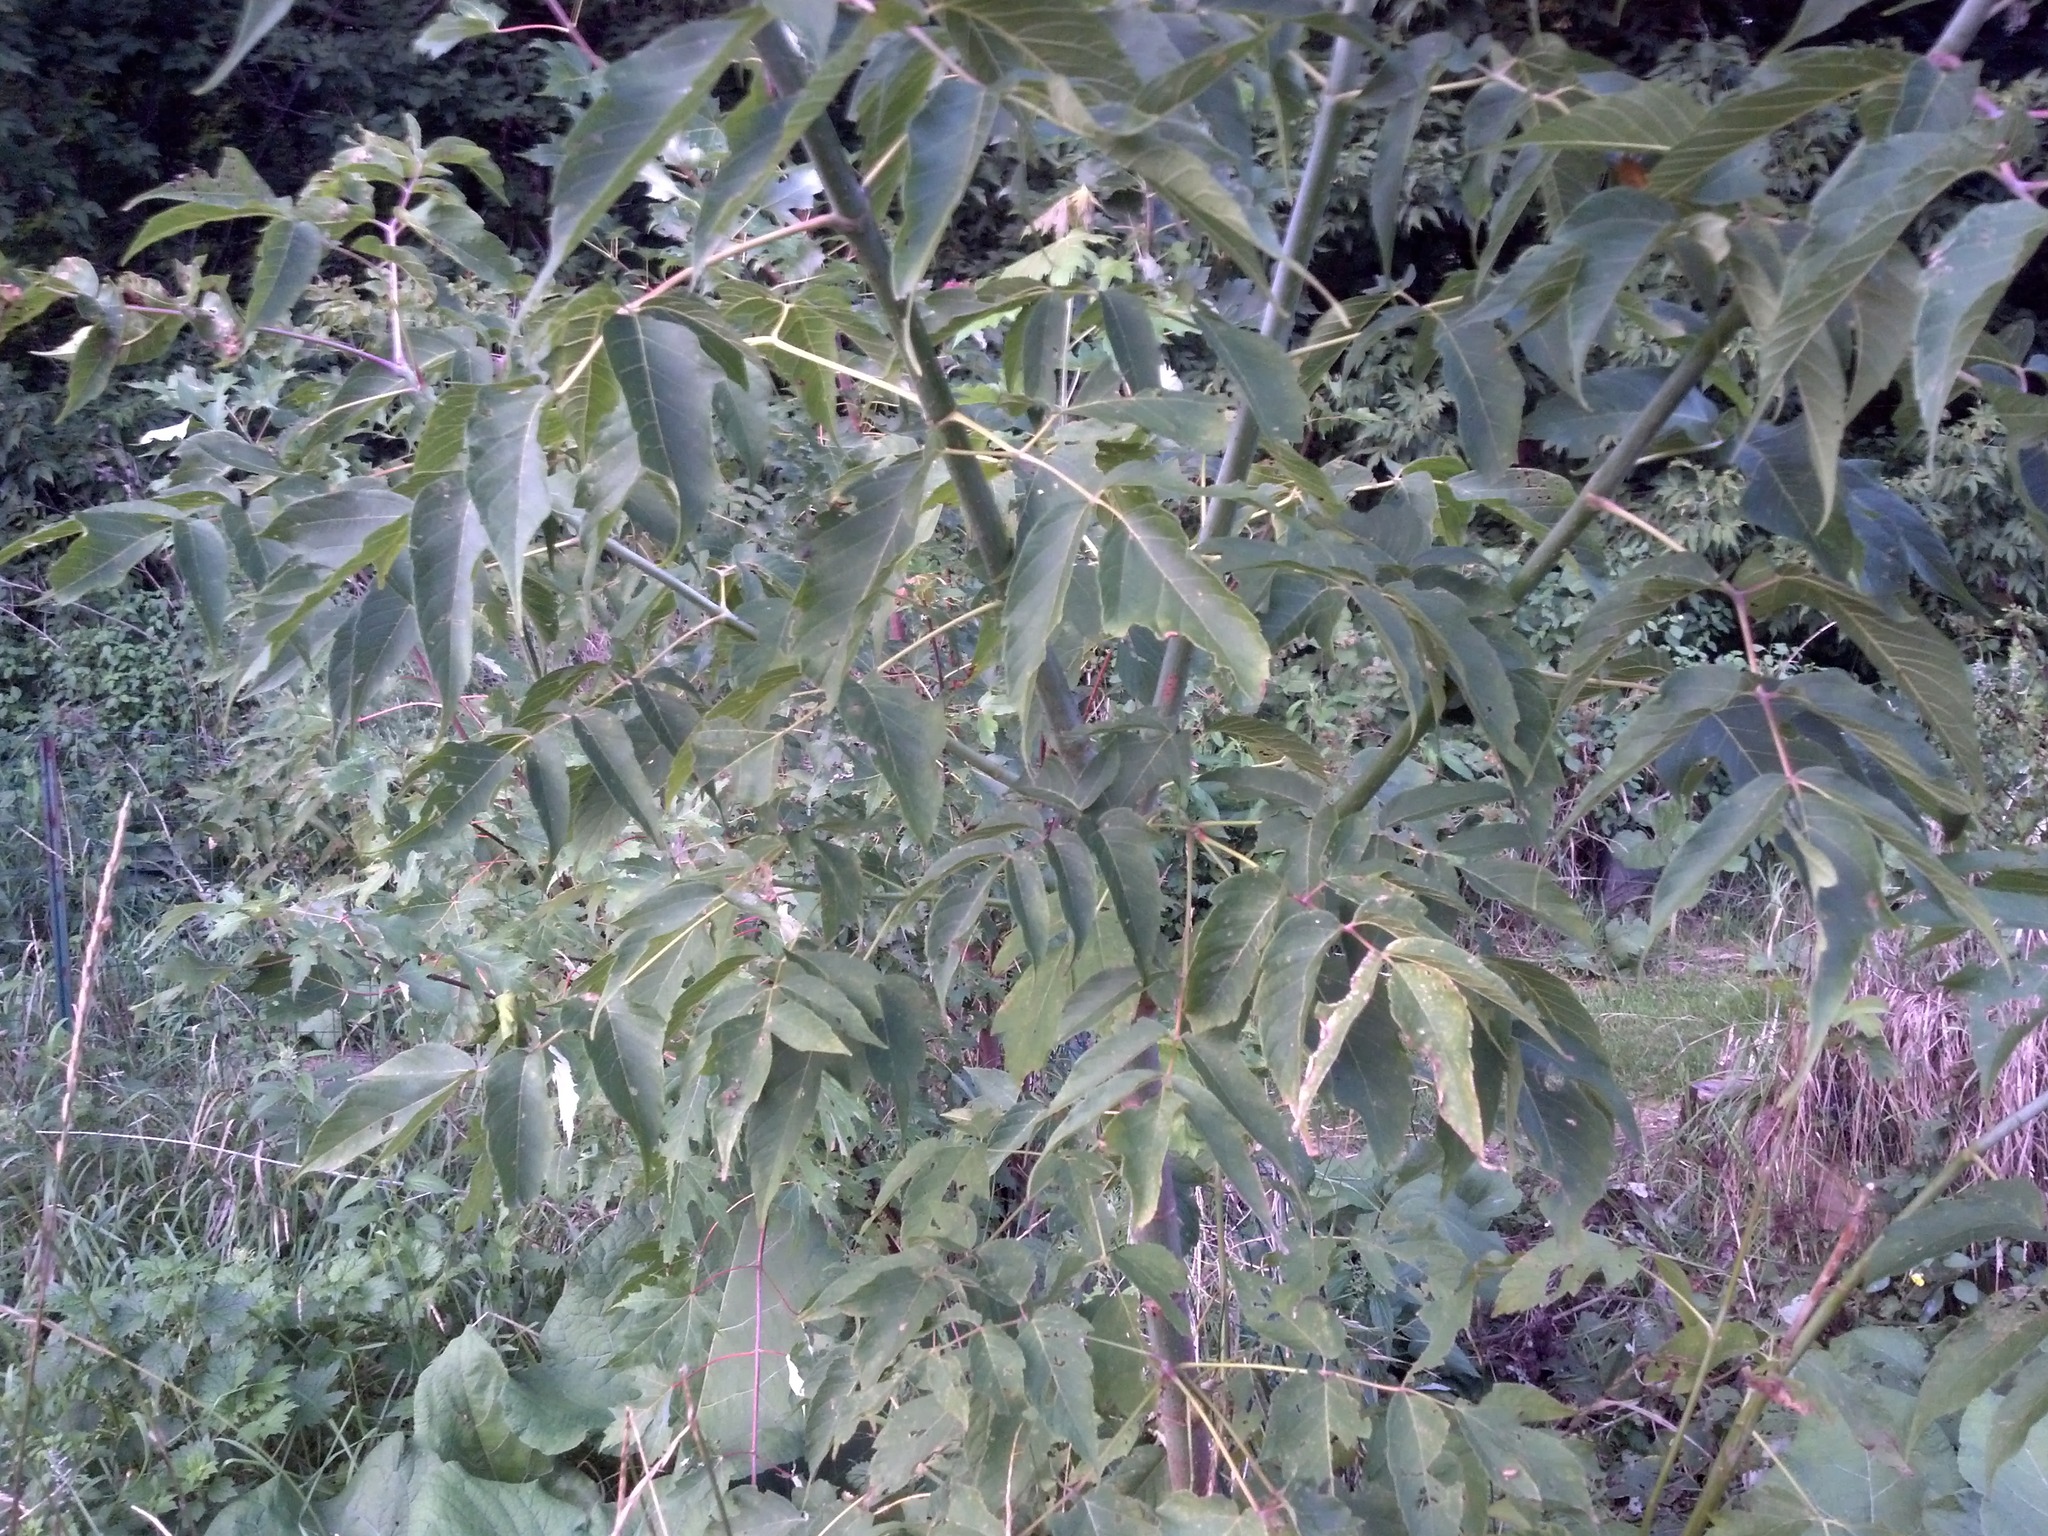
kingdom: Plantae
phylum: Tracheophyta
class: Magnoliopsida
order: Sapindales
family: Sapindaceae
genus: Acer
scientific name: Acer negundo
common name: Ashleaf maple
